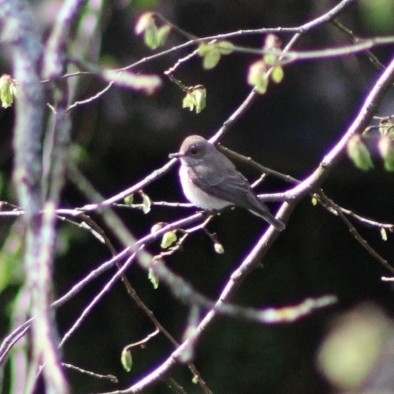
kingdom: Animalia
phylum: Chordata
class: Aves
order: Passeriformes
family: Muscicapidae
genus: Muscicapa
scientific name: Muscicapa striata
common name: Spotted flycatcher
